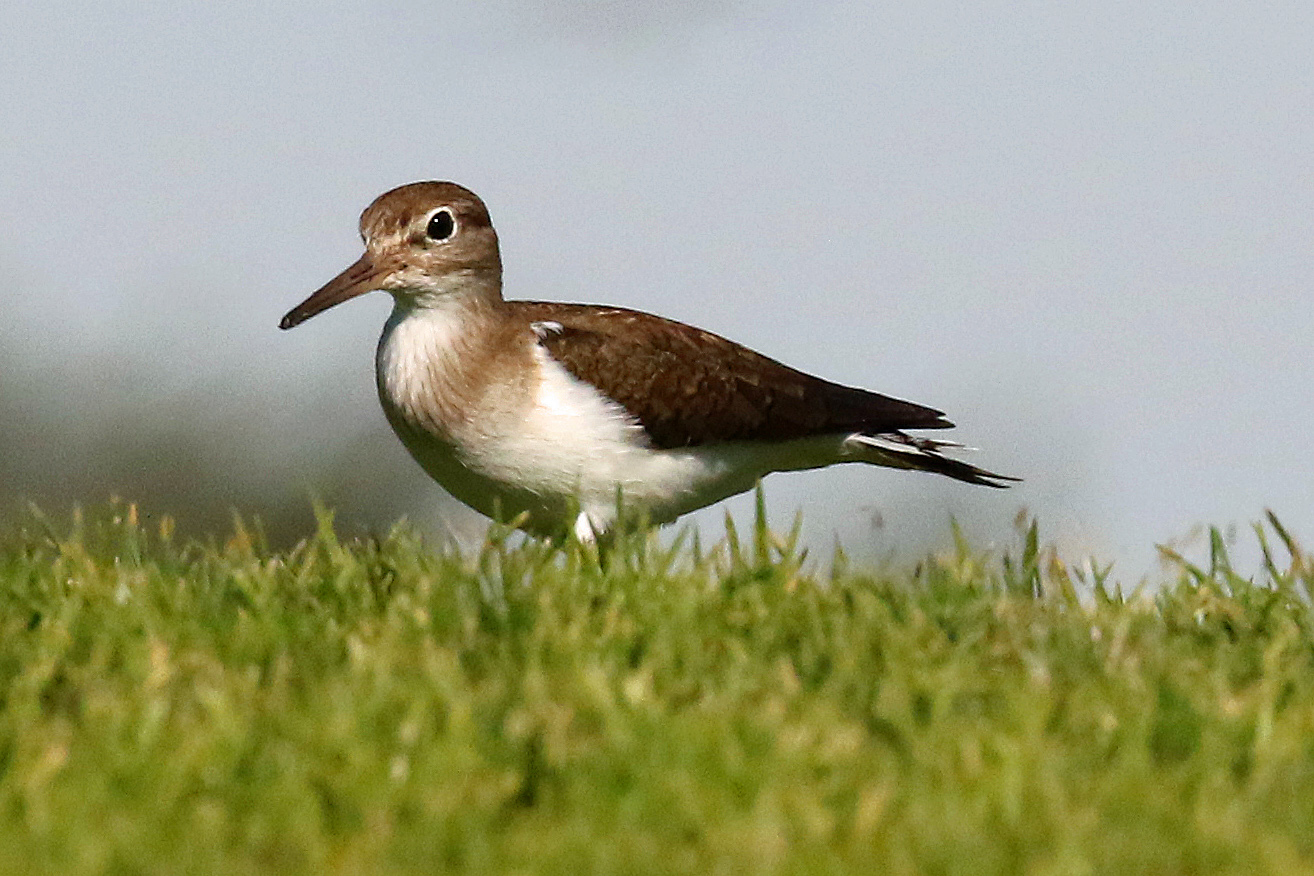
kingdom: Animalia
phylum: Chordata
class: Aves
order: Charadriiformes
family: Scolopacidae
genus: Actitis
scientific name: Actitis hypoleucos
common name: Common sandpiper
